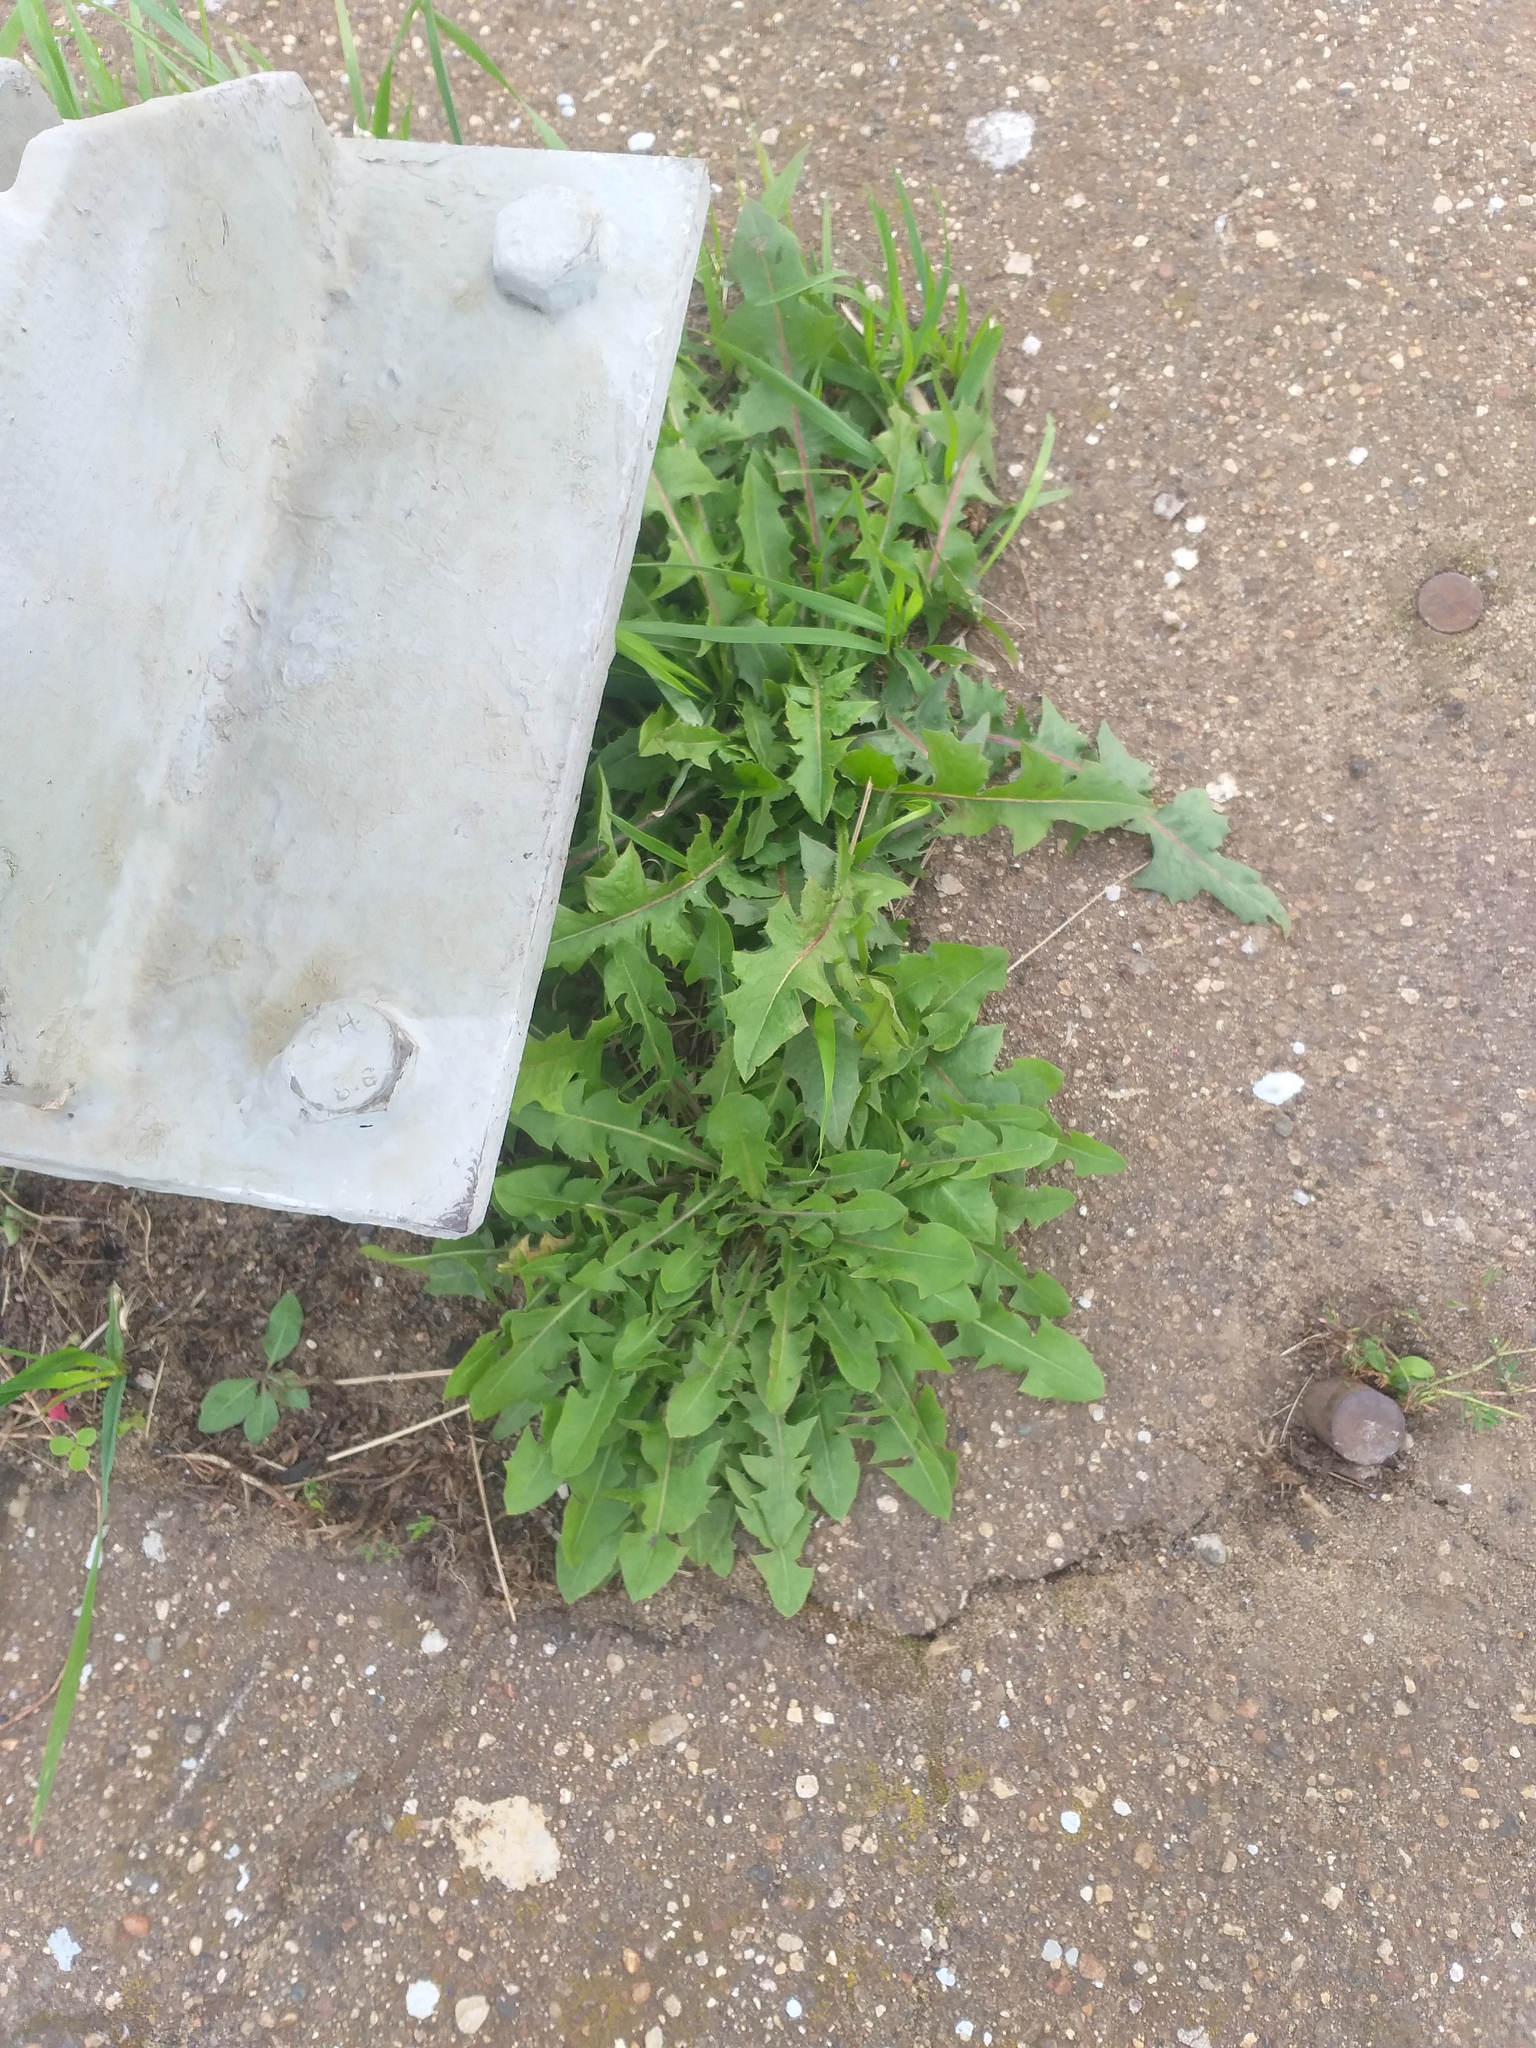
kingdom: Plantae
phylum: Tracheophyta
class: Magnoliopsida
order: Asterales
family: Asteraceae
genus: Taraxacum
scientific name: Taraxacum officinale
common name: Common dandelion
